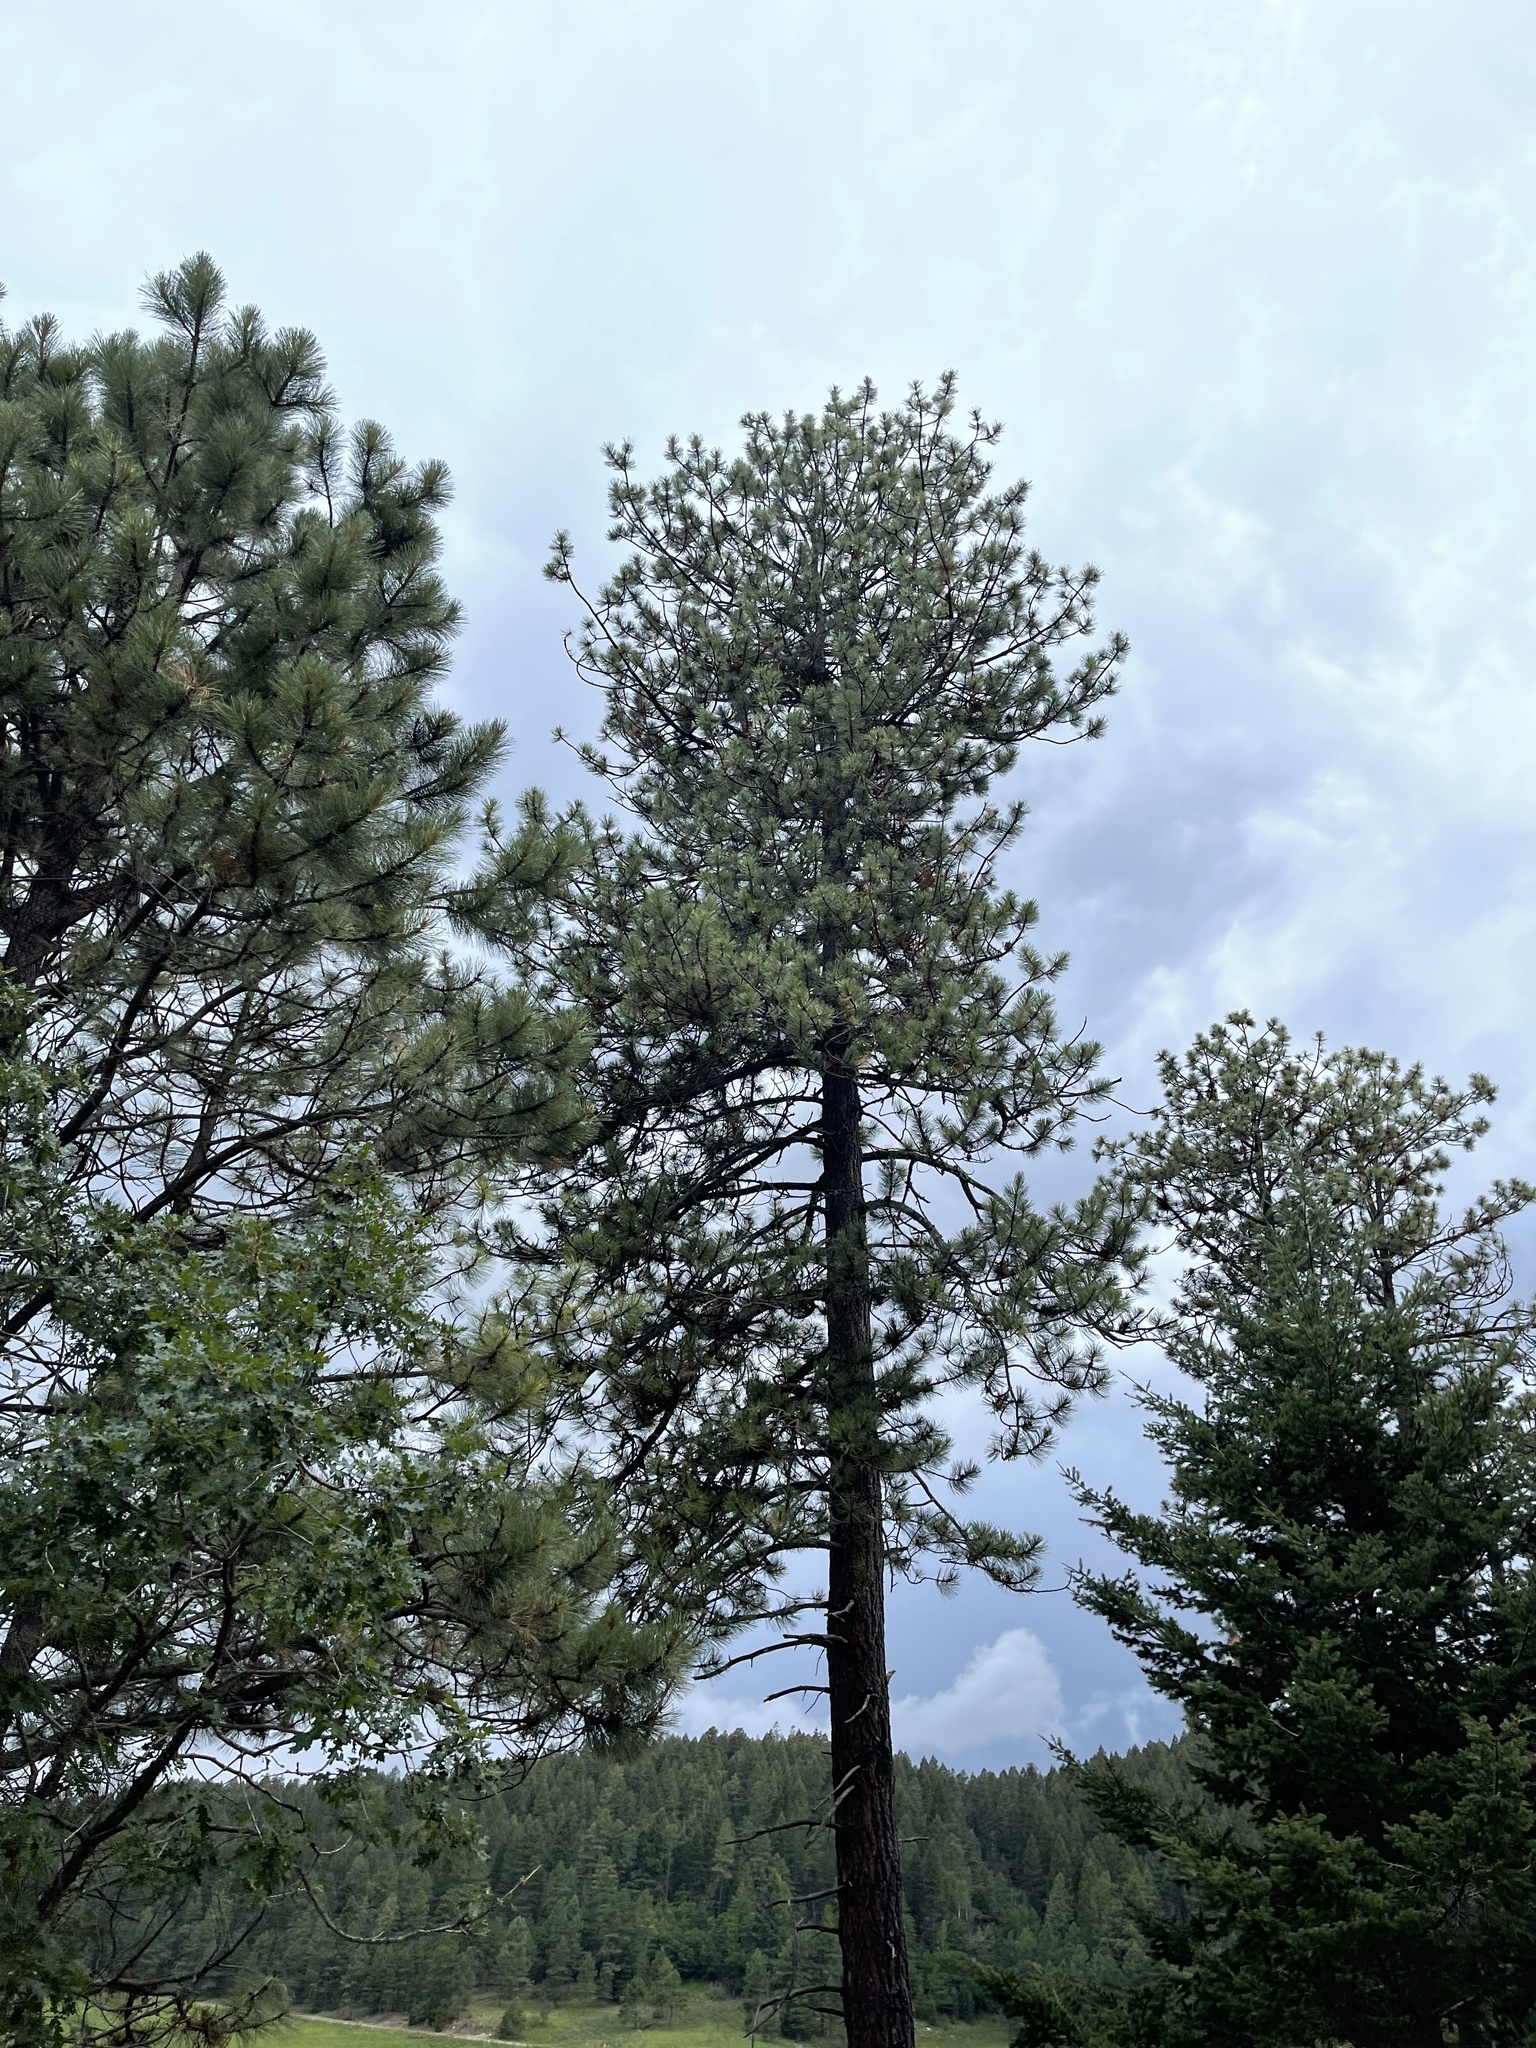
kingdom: Plantae
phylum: Tracheophyta
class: Pinopsida
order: Pinales
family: Pinaceae
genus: Pinus
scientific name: Pinus ponderosa
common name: Western yellow-pine
